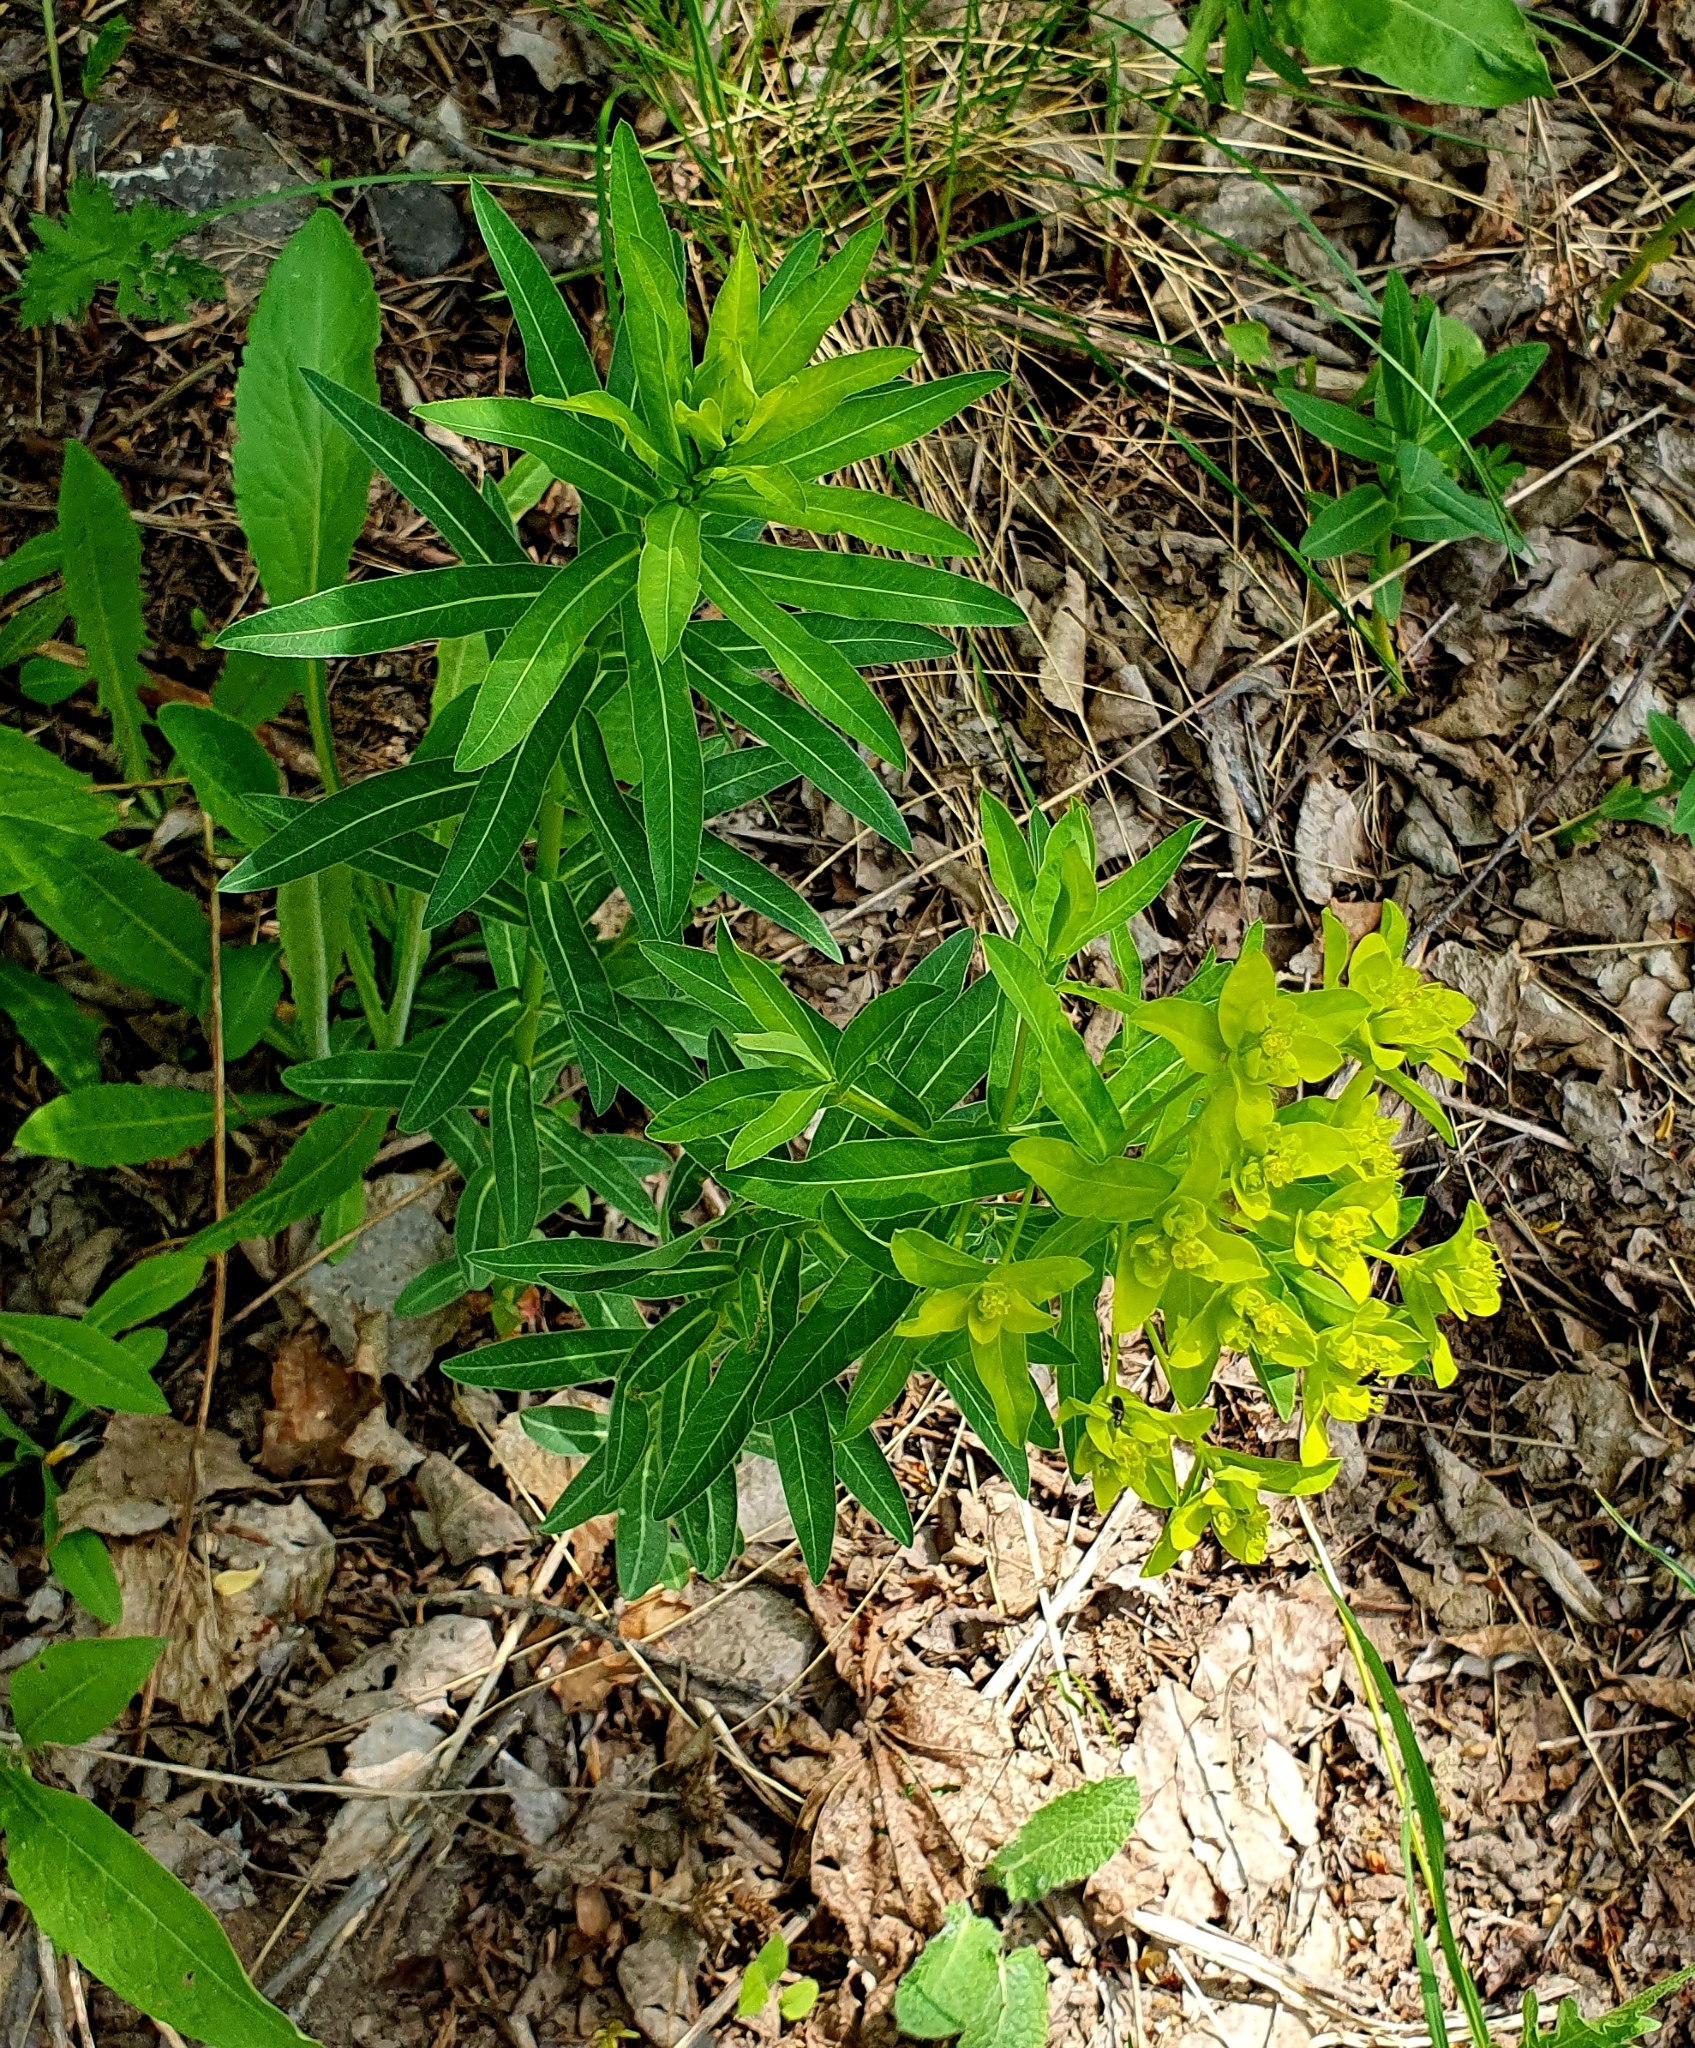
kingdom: Plantae
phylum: Tracheophyta
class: Magnoliopsida
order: Malpighiales
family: Euphorbiaceae
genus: Euphorbia
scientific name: Euphorbia semivillosa
